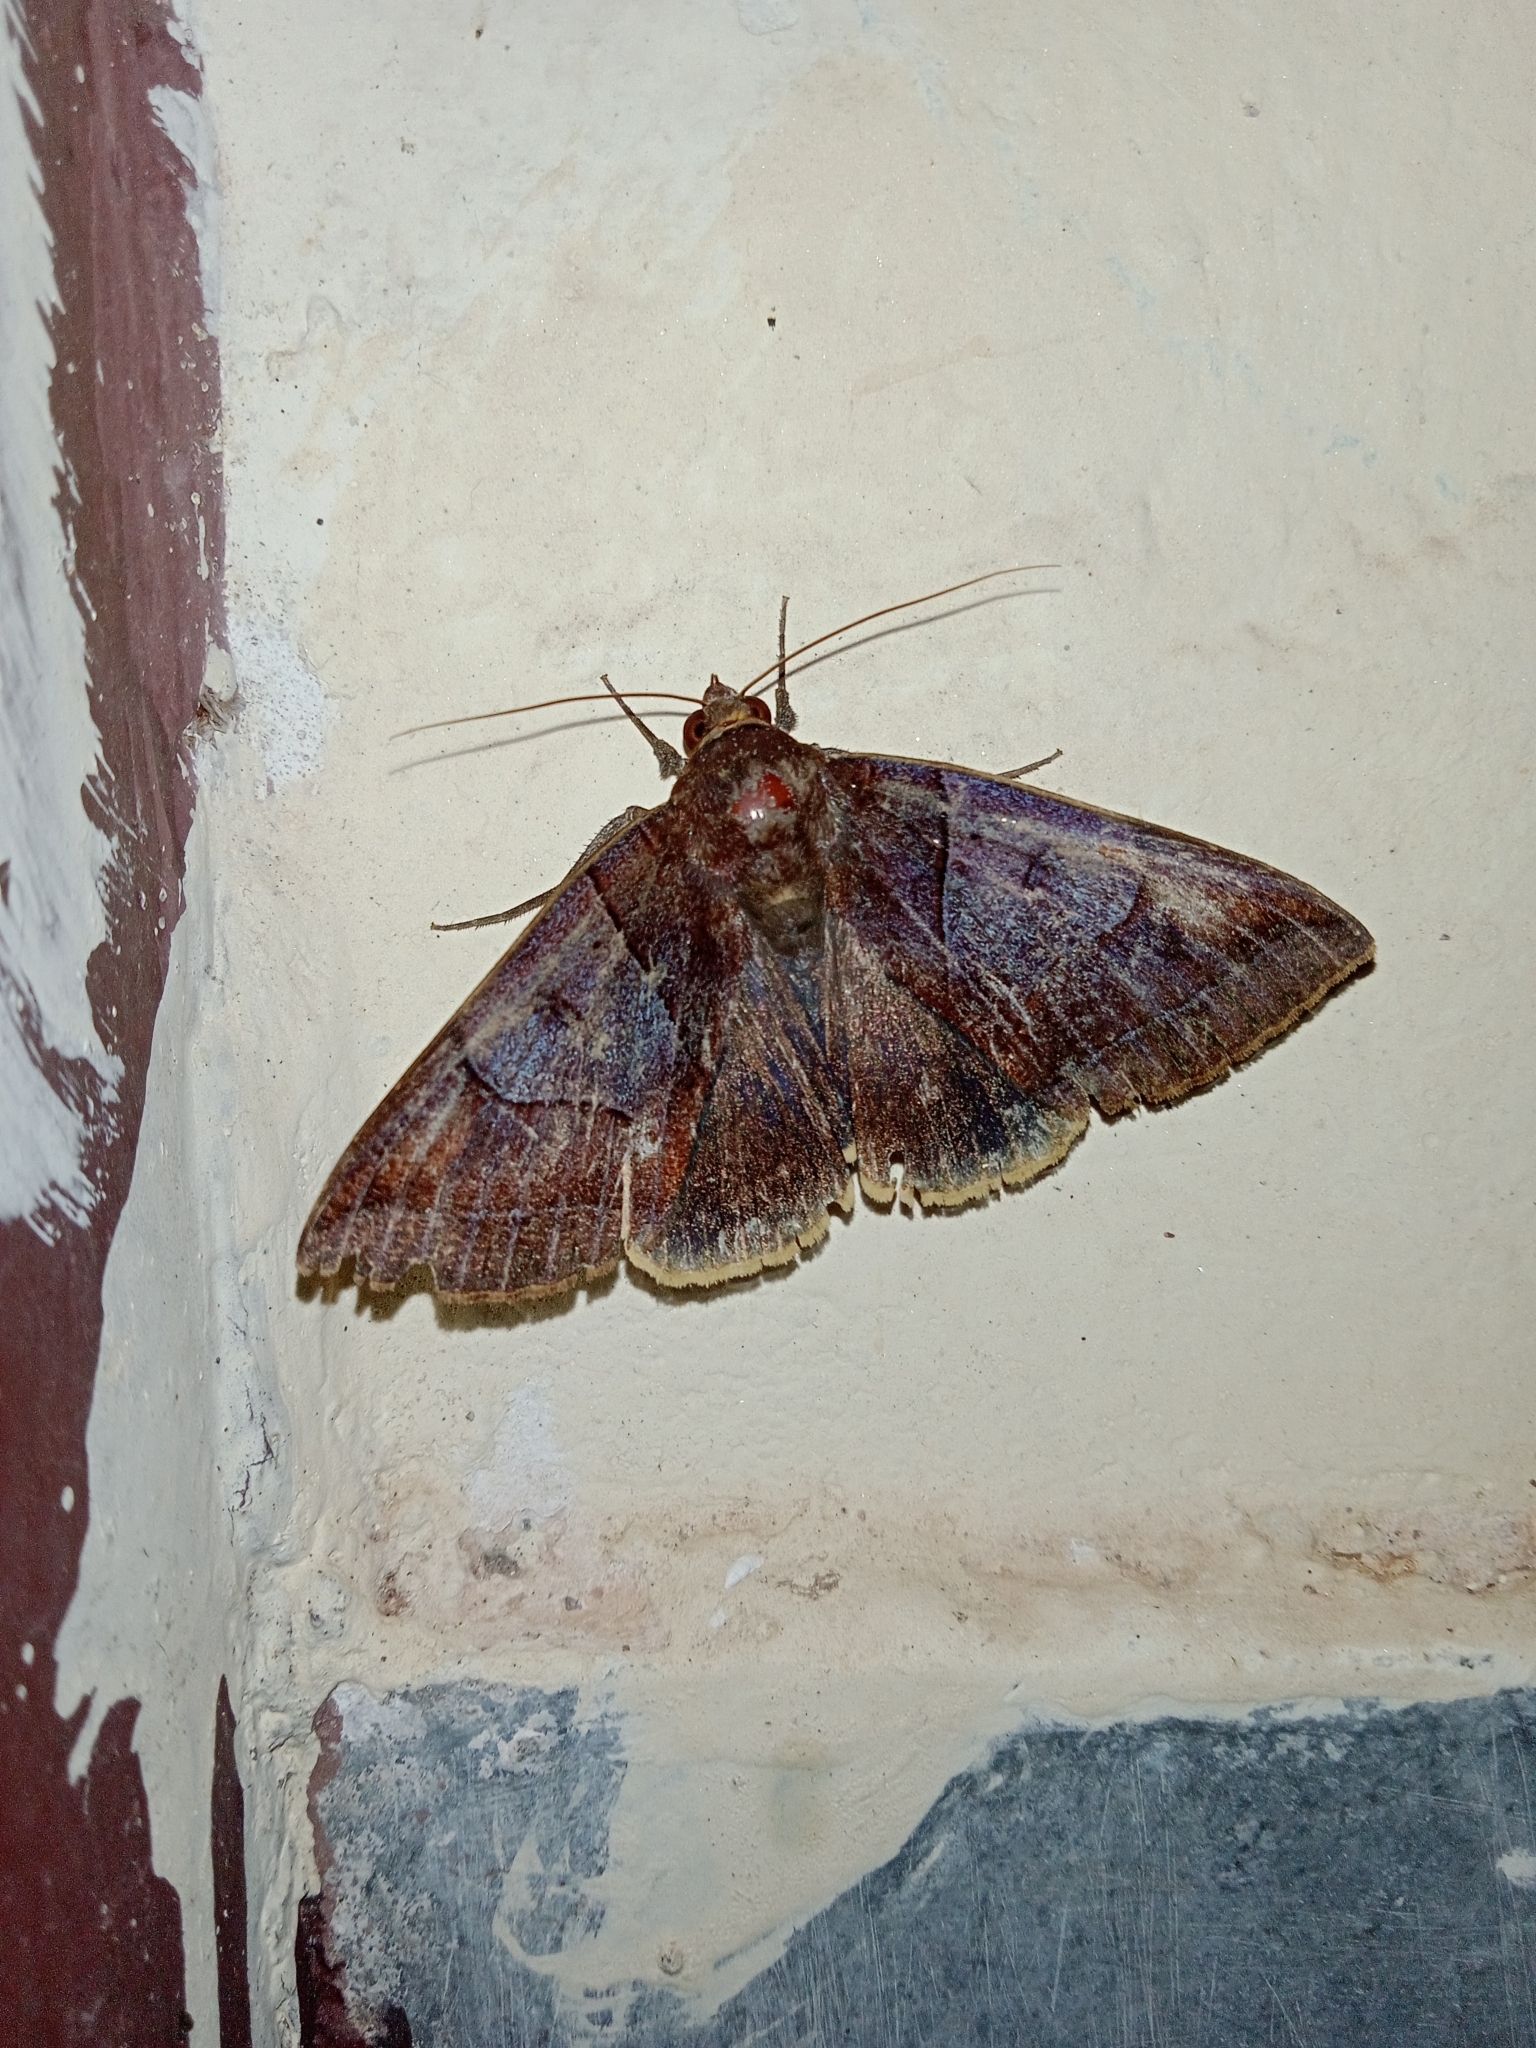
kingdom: Animalia
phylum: Arthropoda
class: Insecta
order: Lepidoptera
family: Erebidae
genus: Artena
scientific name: Artena submira
